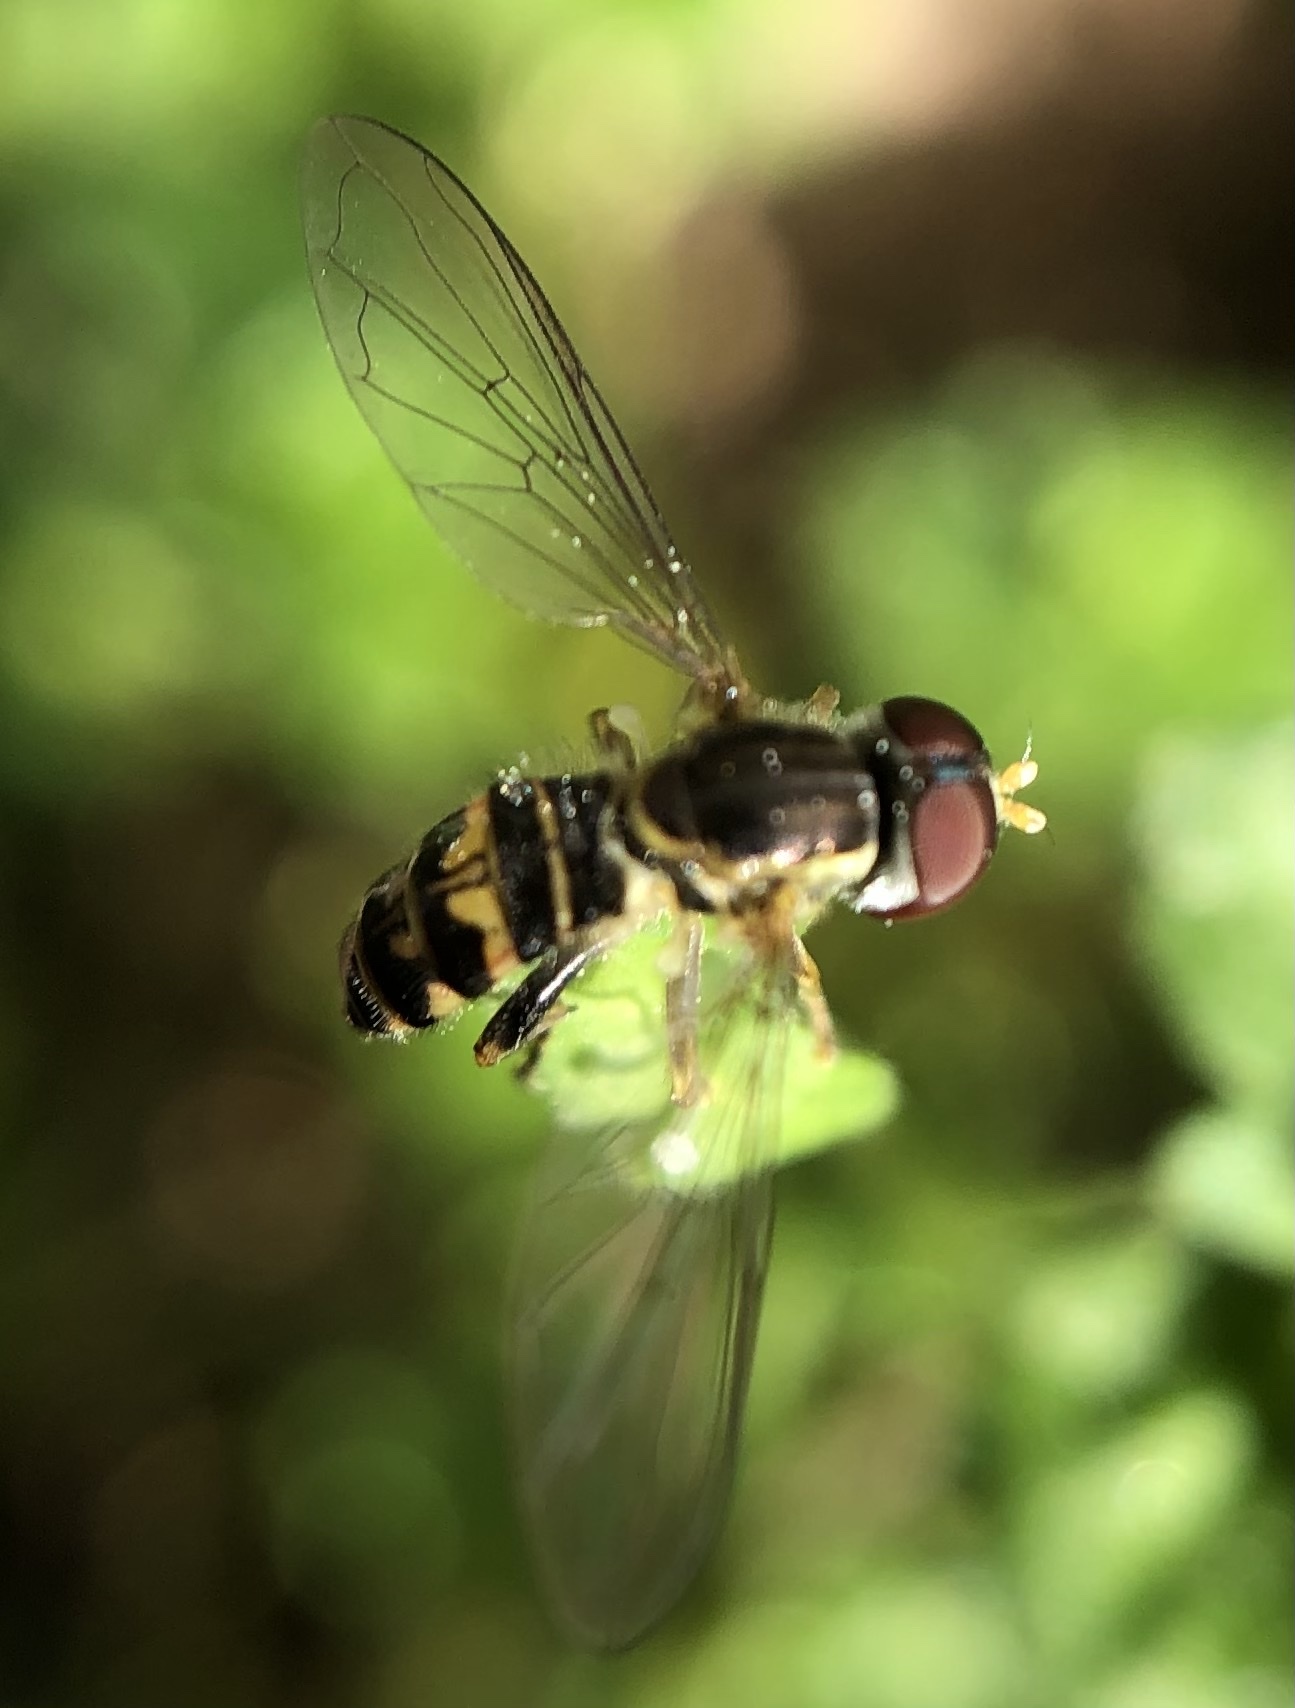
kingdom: Animalia
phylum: Arthropoda
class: Insecta
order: Diptera
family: Syrphidae
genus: Toxomerus
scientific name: Toxomerus geminatus
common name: Eastern calligrapher
